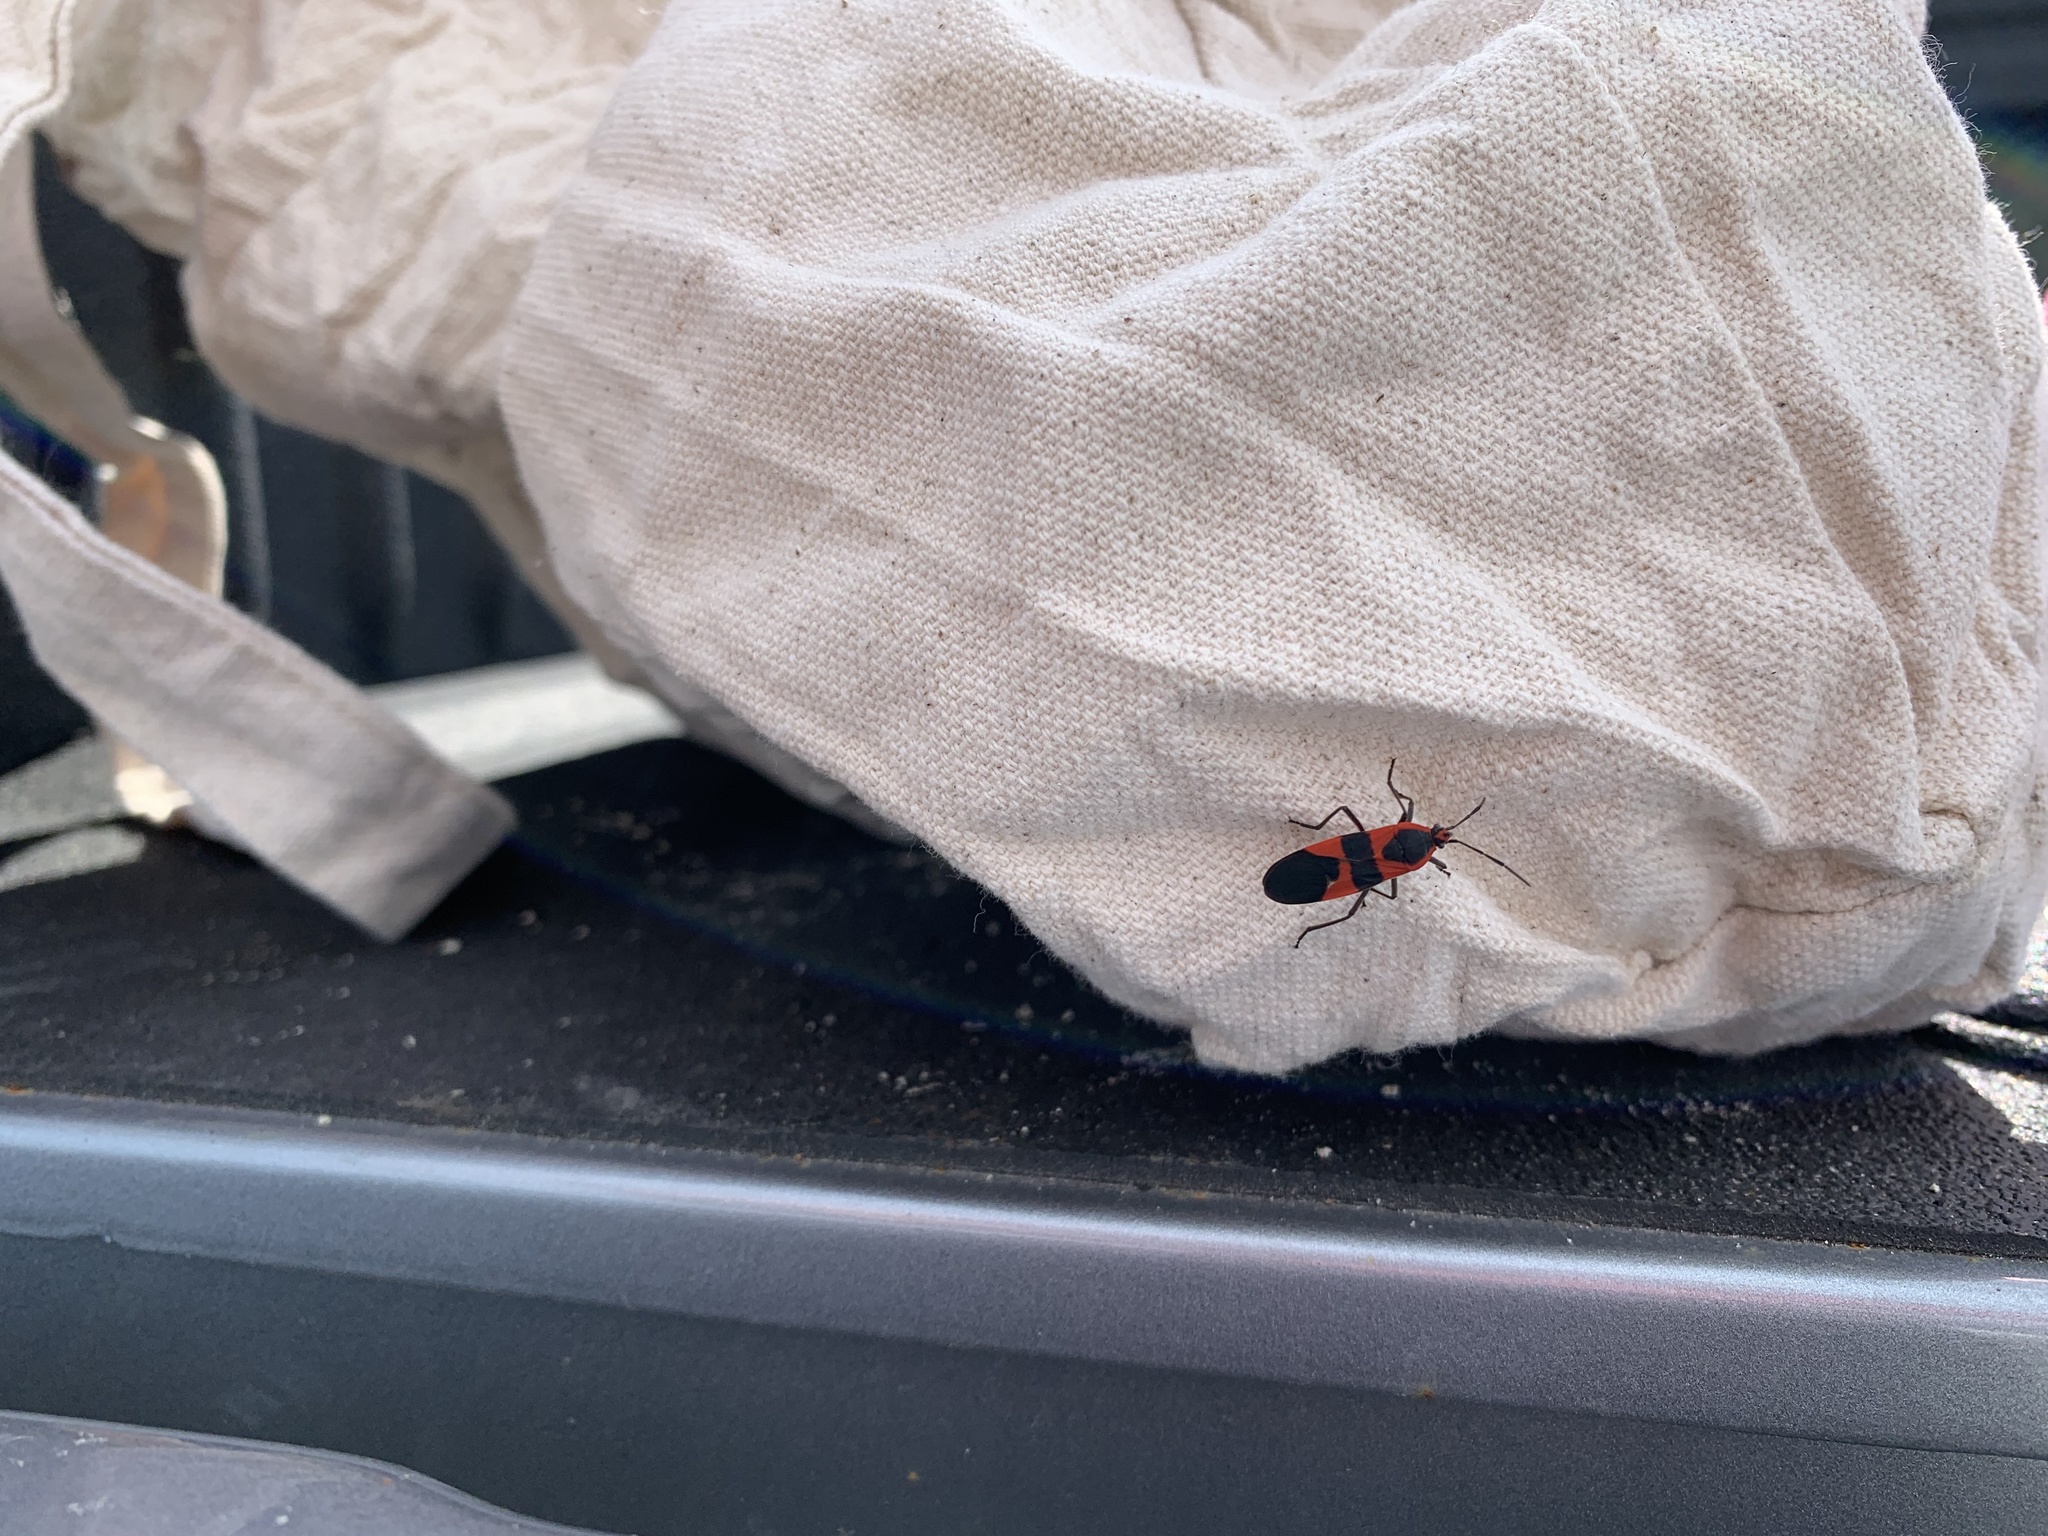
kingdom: Animalia
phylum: Arthropoda
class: Insecta
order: Hemiptera
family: Lygaeidae
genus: Oncopeltus
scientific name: Oncopeltus fasciatus
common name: Large milkweed bug
